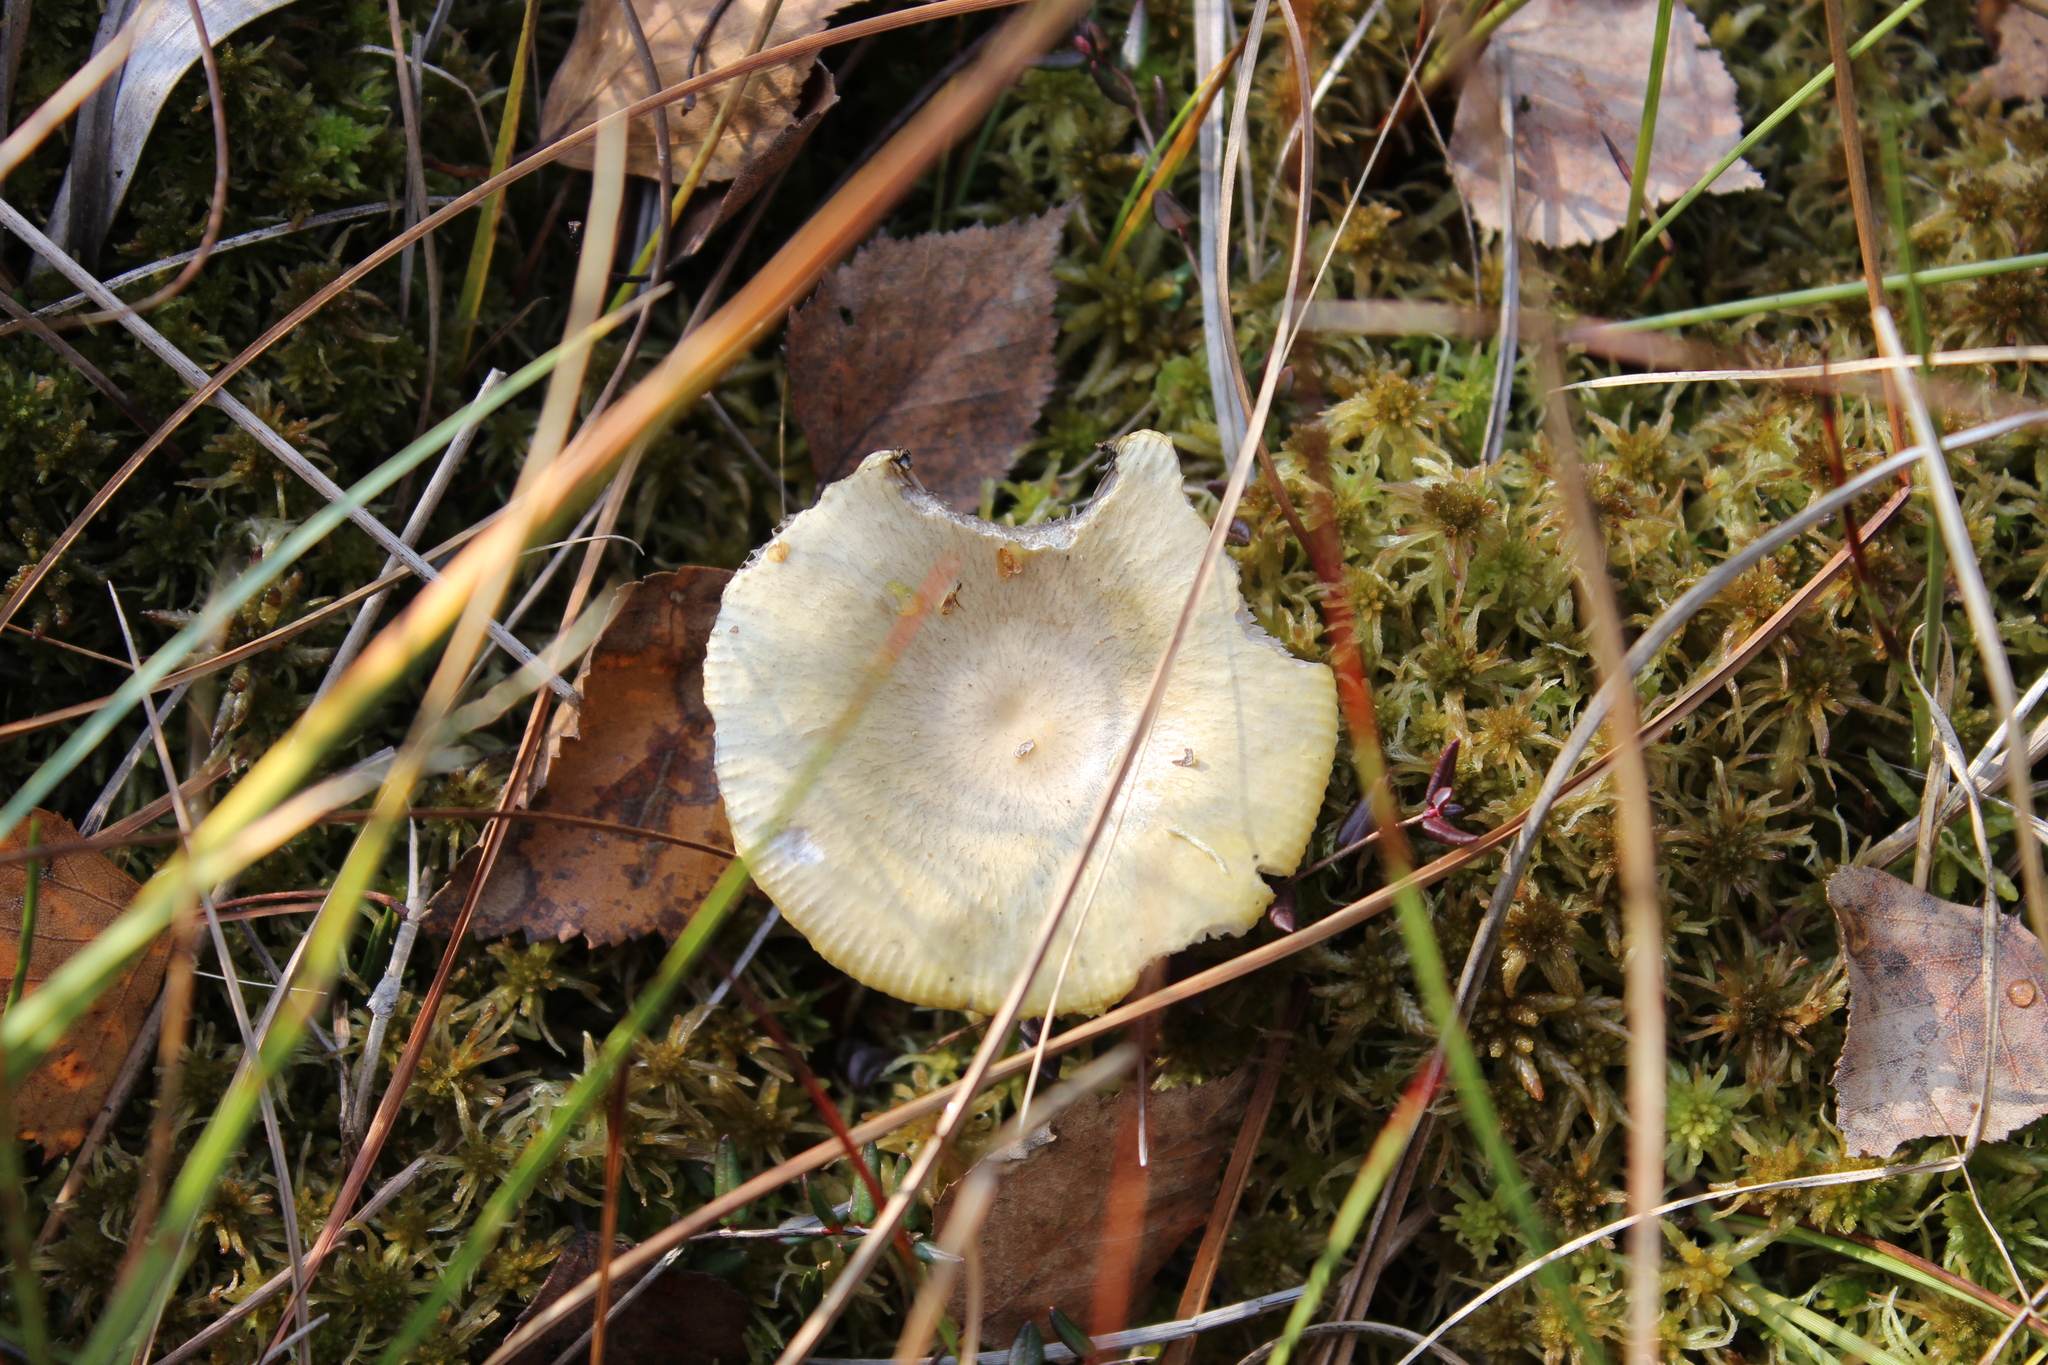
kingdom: Fungi
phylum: Basidiomycota
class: Agaricomycetes
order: Russulales
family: Russulaceae
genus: Russula
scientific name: Russula claroflava
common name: The yellow swamp brittlegill
